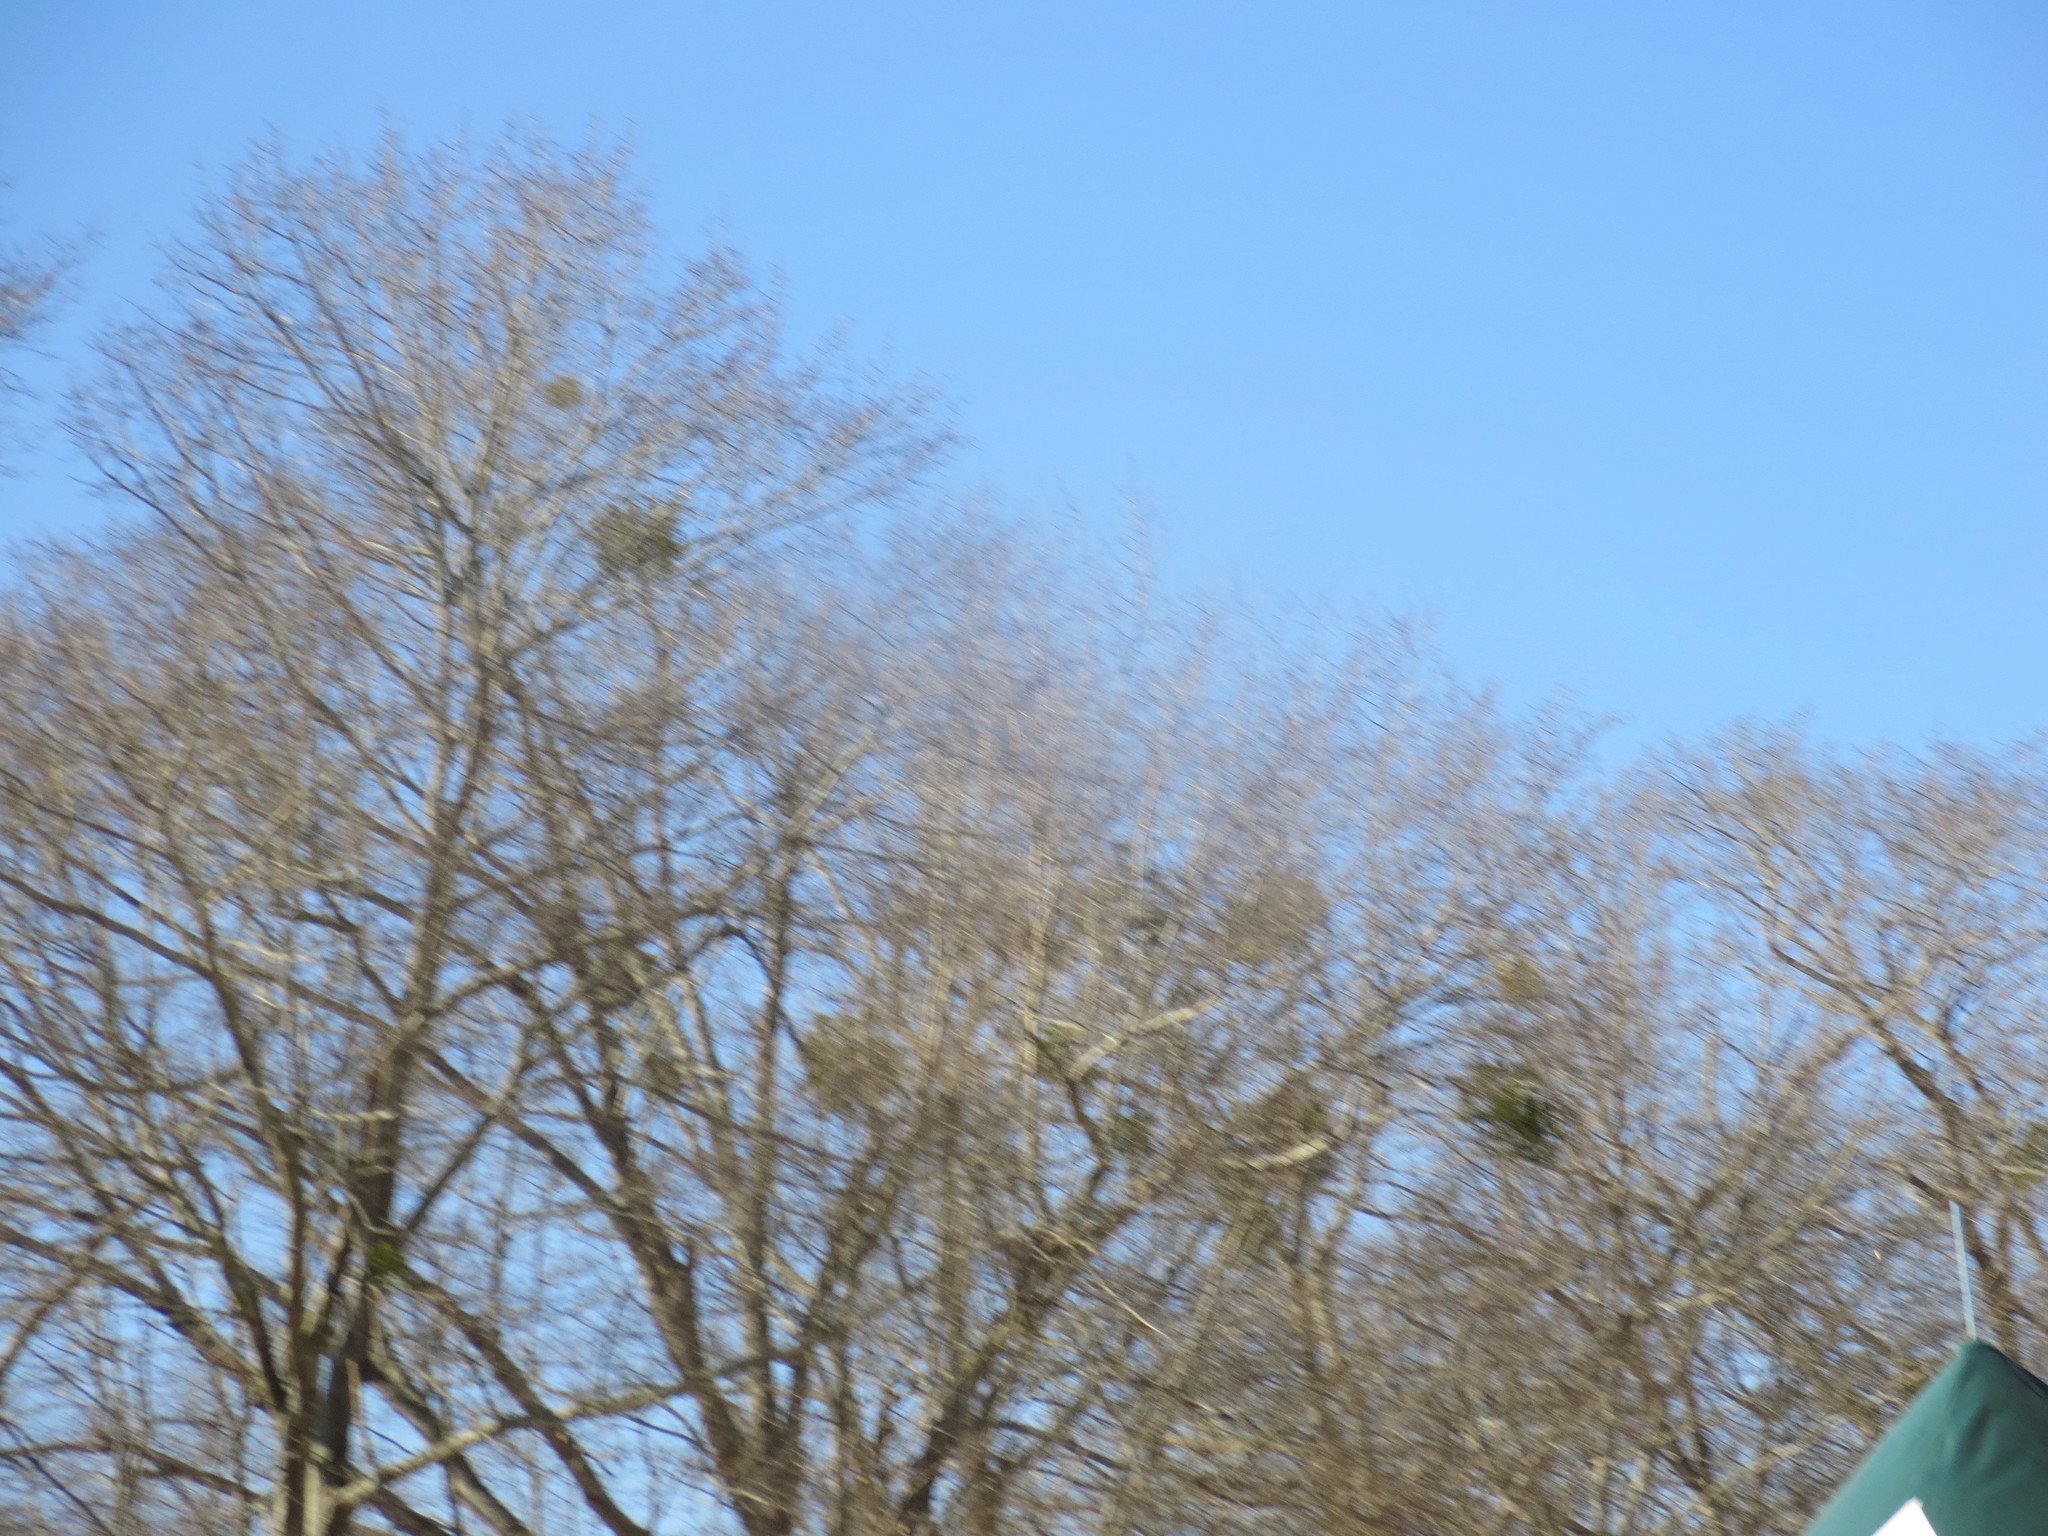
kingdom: Plantae
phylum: Tracheophyta
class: Magnoliopsida
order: Santalales
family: Viscaceae
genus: Phoradendron
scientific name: Phoradendron leucarpum
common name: Pacific mistletoe
